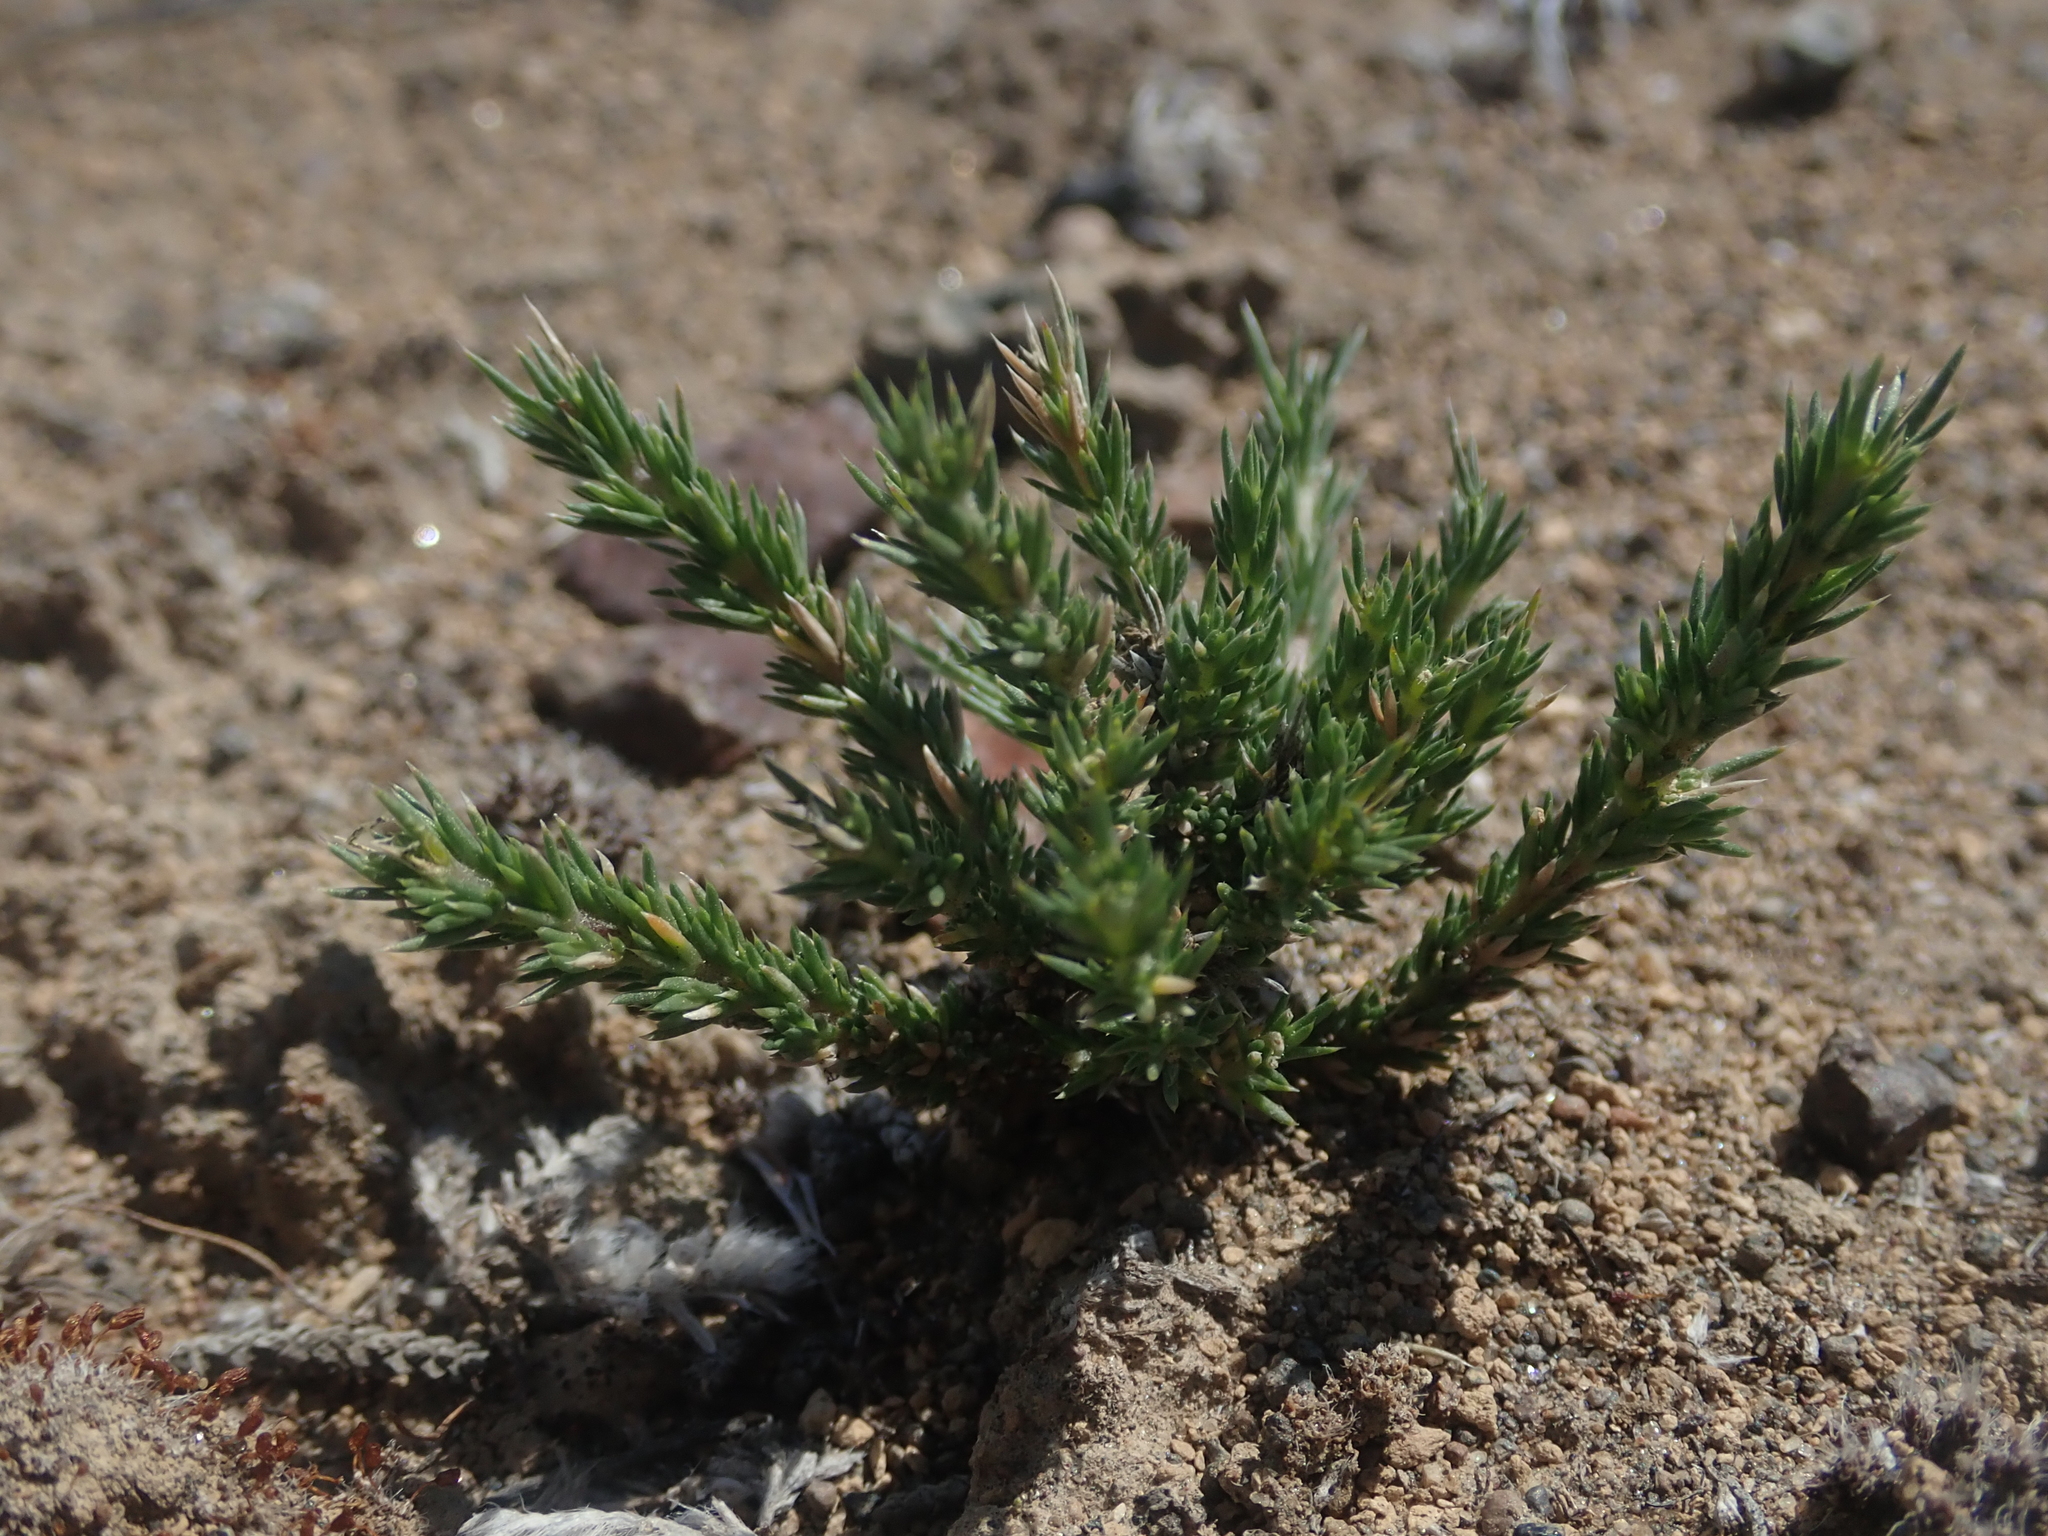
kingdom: Plantae
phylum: Tracheophyta
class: Magnoliopsida
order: Ericales
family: Polemoniaceae
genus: Linanthus
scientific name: Linanthus pungens
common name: Granite prickly phlox
